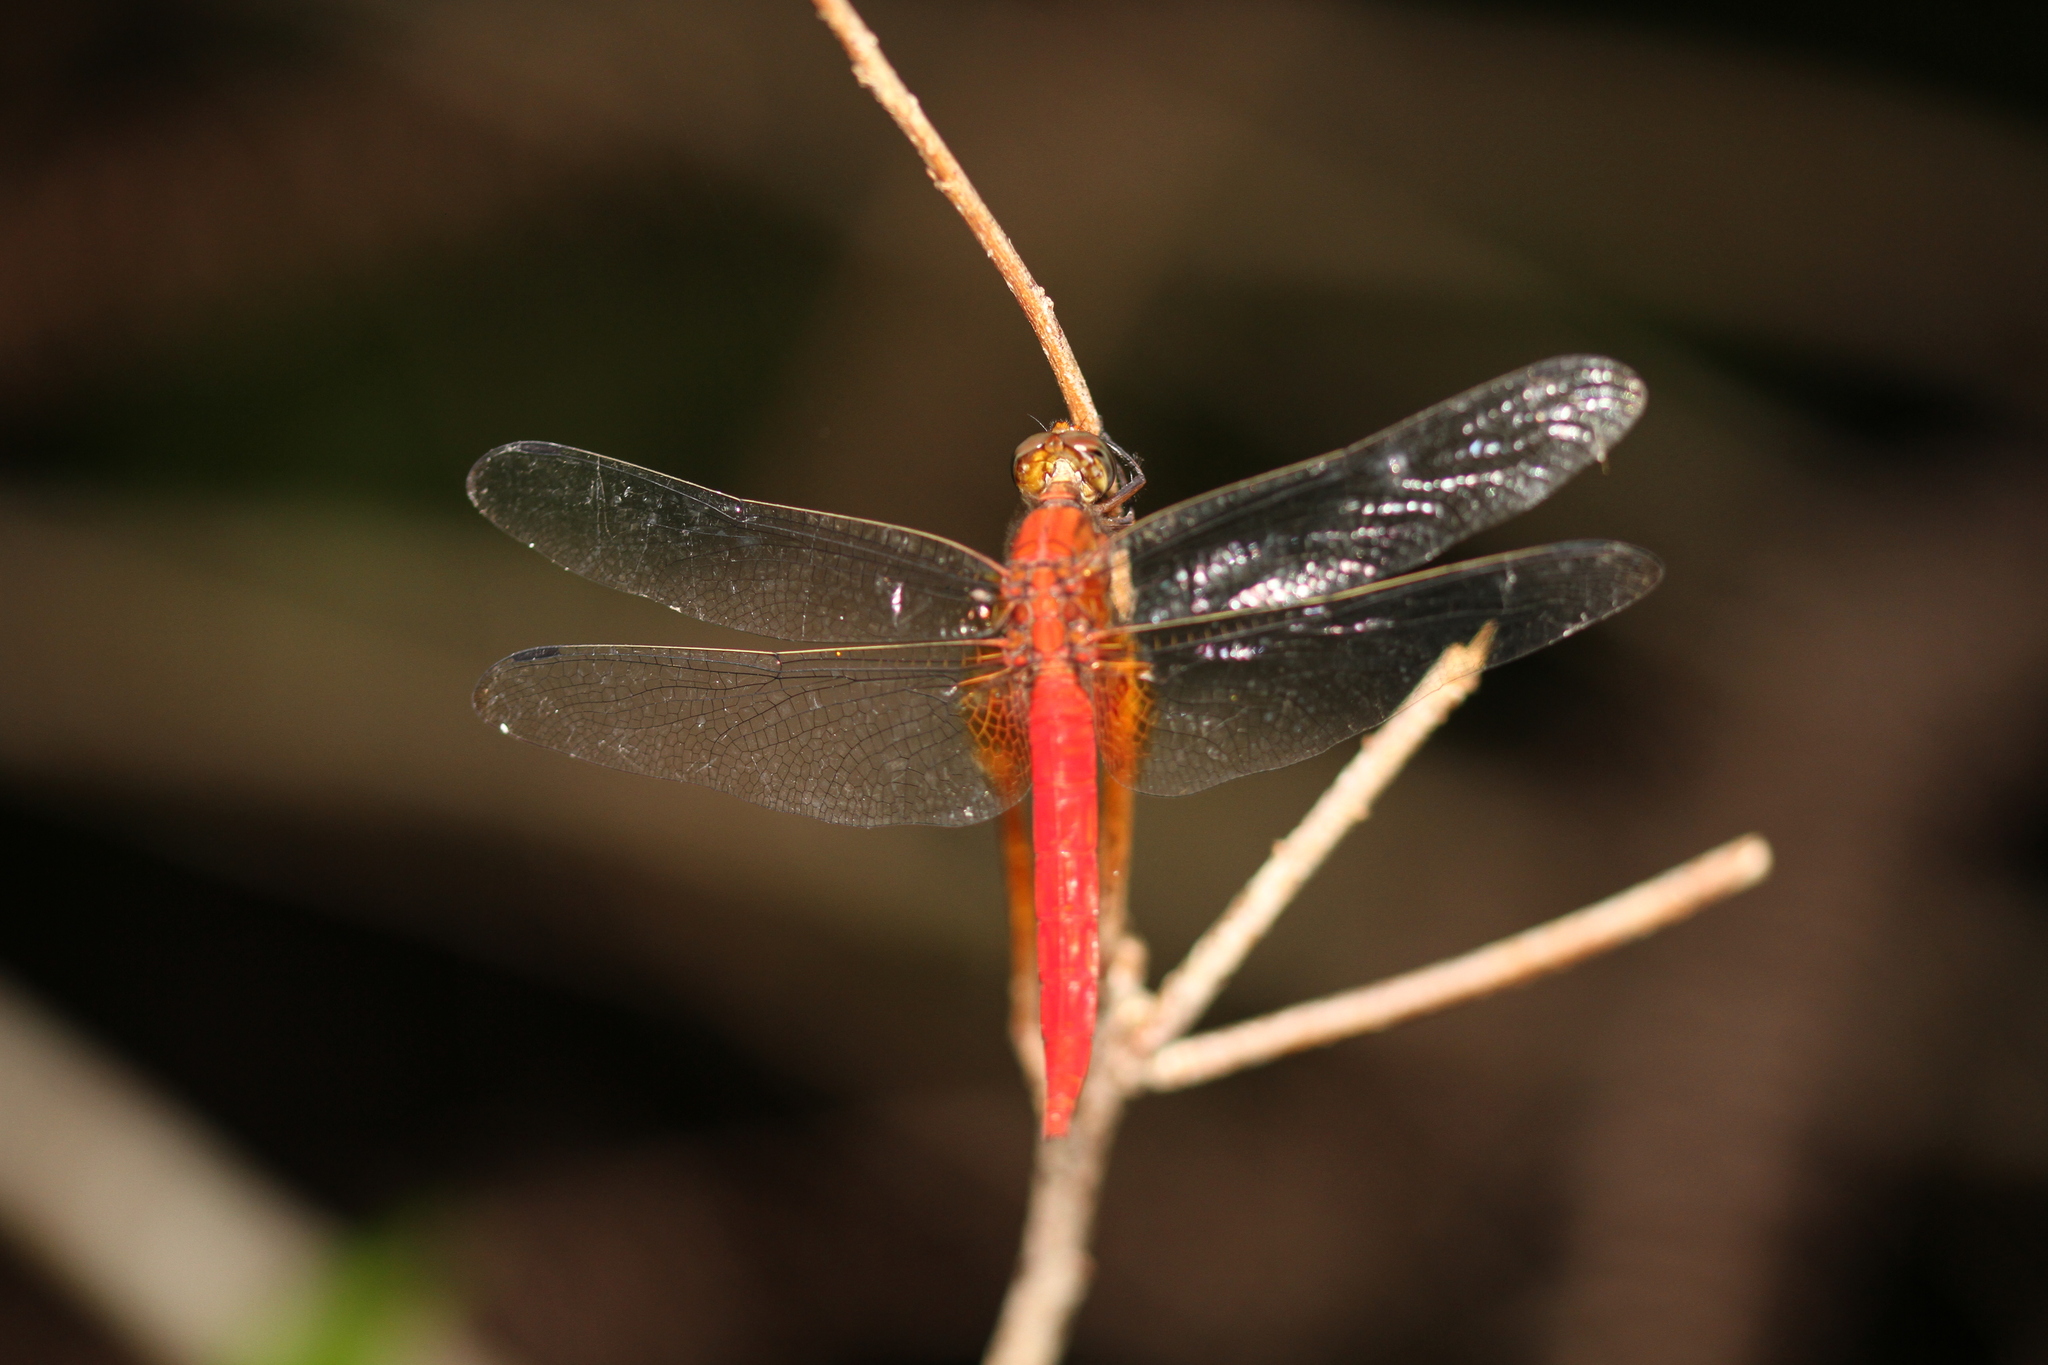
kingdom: Animalia
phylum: Arthropoda
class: Insecta
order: Odonata
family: Libellulidae
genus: Orthetrum
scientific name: Orthetrum testaceum
